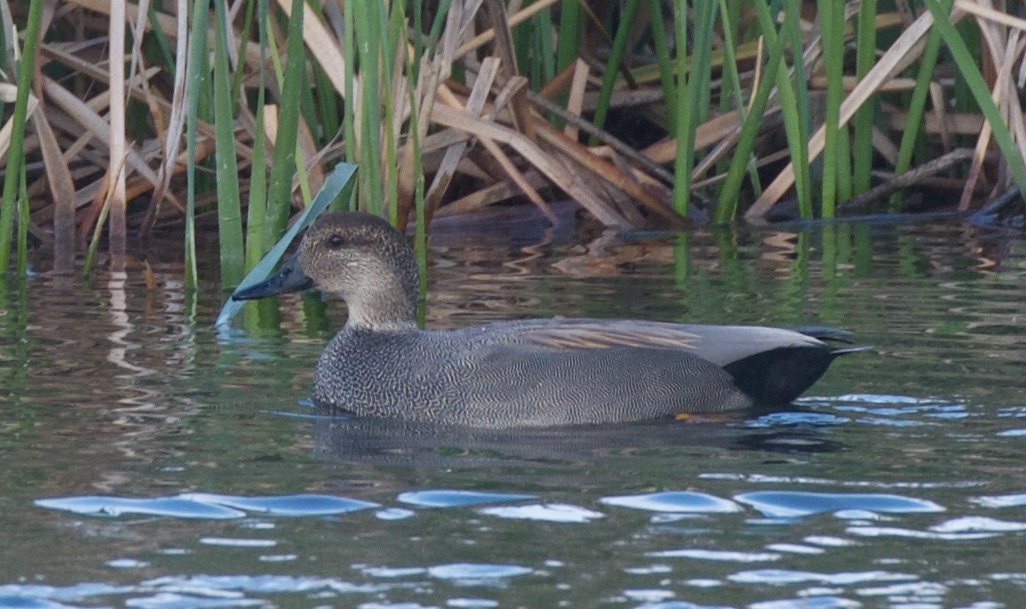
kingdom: Animalia
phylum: Chordata
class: Aves
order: Anseriformes
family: Anatidae
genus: Mareca
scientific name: Mareca strepera
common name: Gadwall
